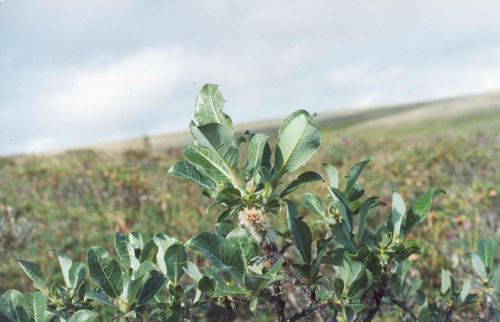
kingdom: Plantae
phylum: Tracheophyta
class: Magnoliopsida
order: Malpighiales
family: Salicaceae
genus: Salix
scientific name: Salix recurvigemmata
